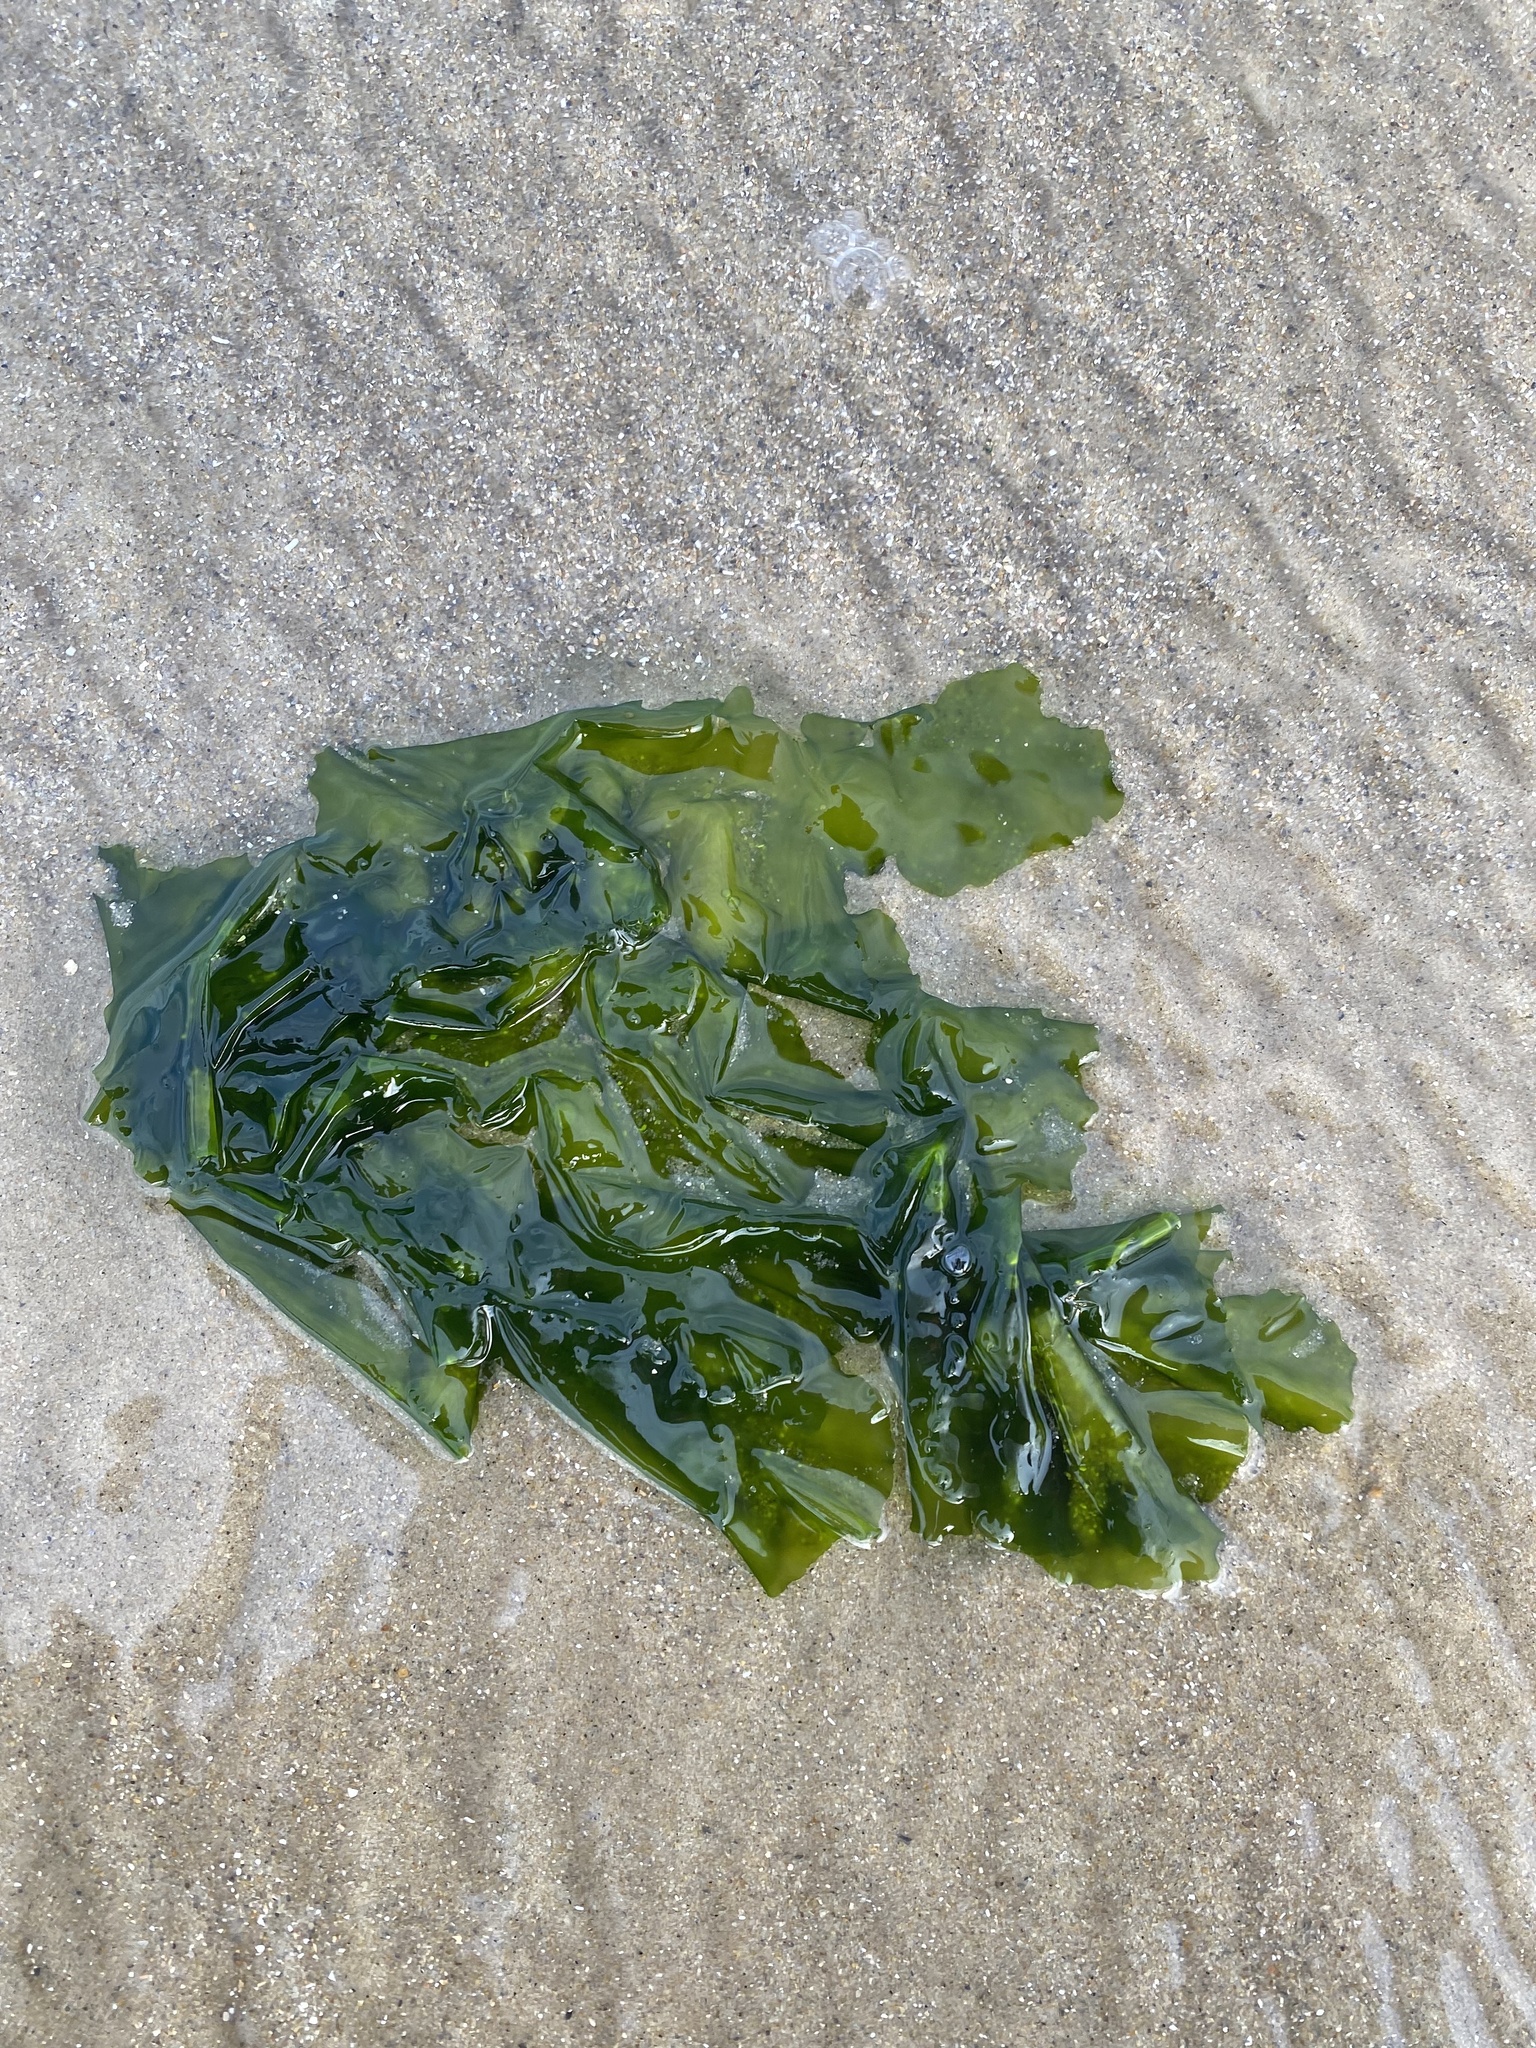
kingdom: Plantae
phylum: Chlorophyta
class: Ulvophyceae
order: Ulvales
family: Ulvaceae
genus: Ulva
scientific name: Ulva lactuca
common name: Sea lettuce
